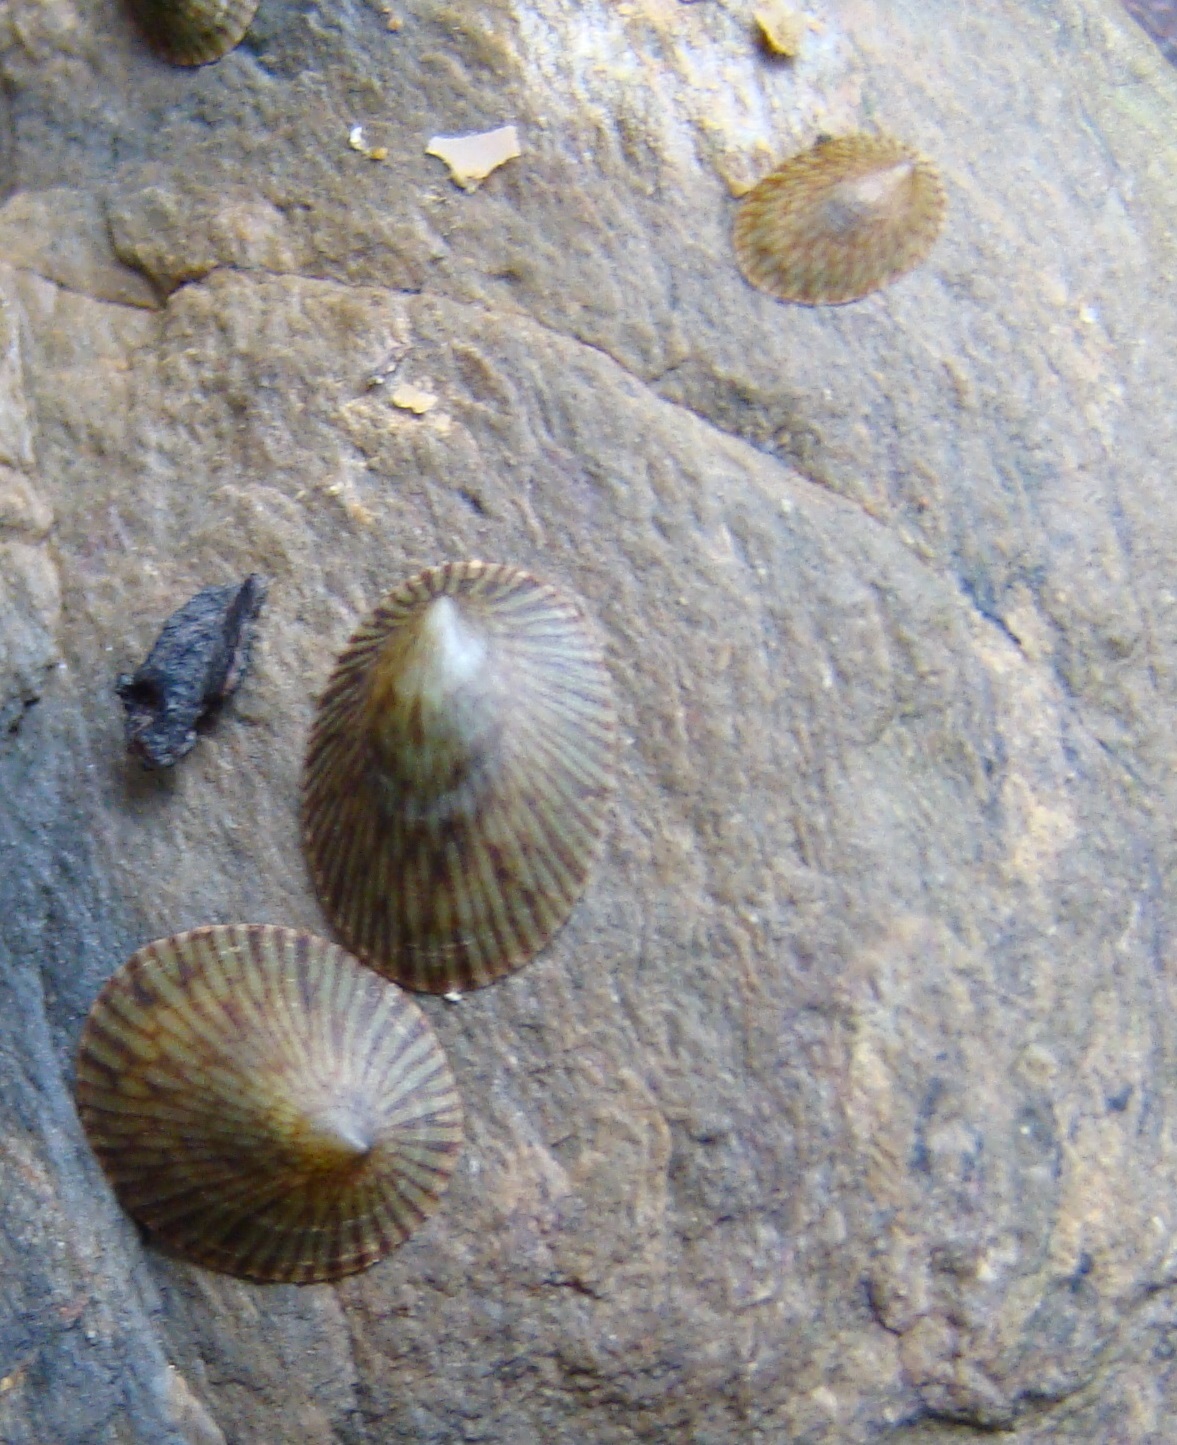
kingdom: Animalia
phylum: Mollusca
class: Gastropoda
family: Lottiidae
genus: Notoacmea
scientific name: Notoacmea elongata
